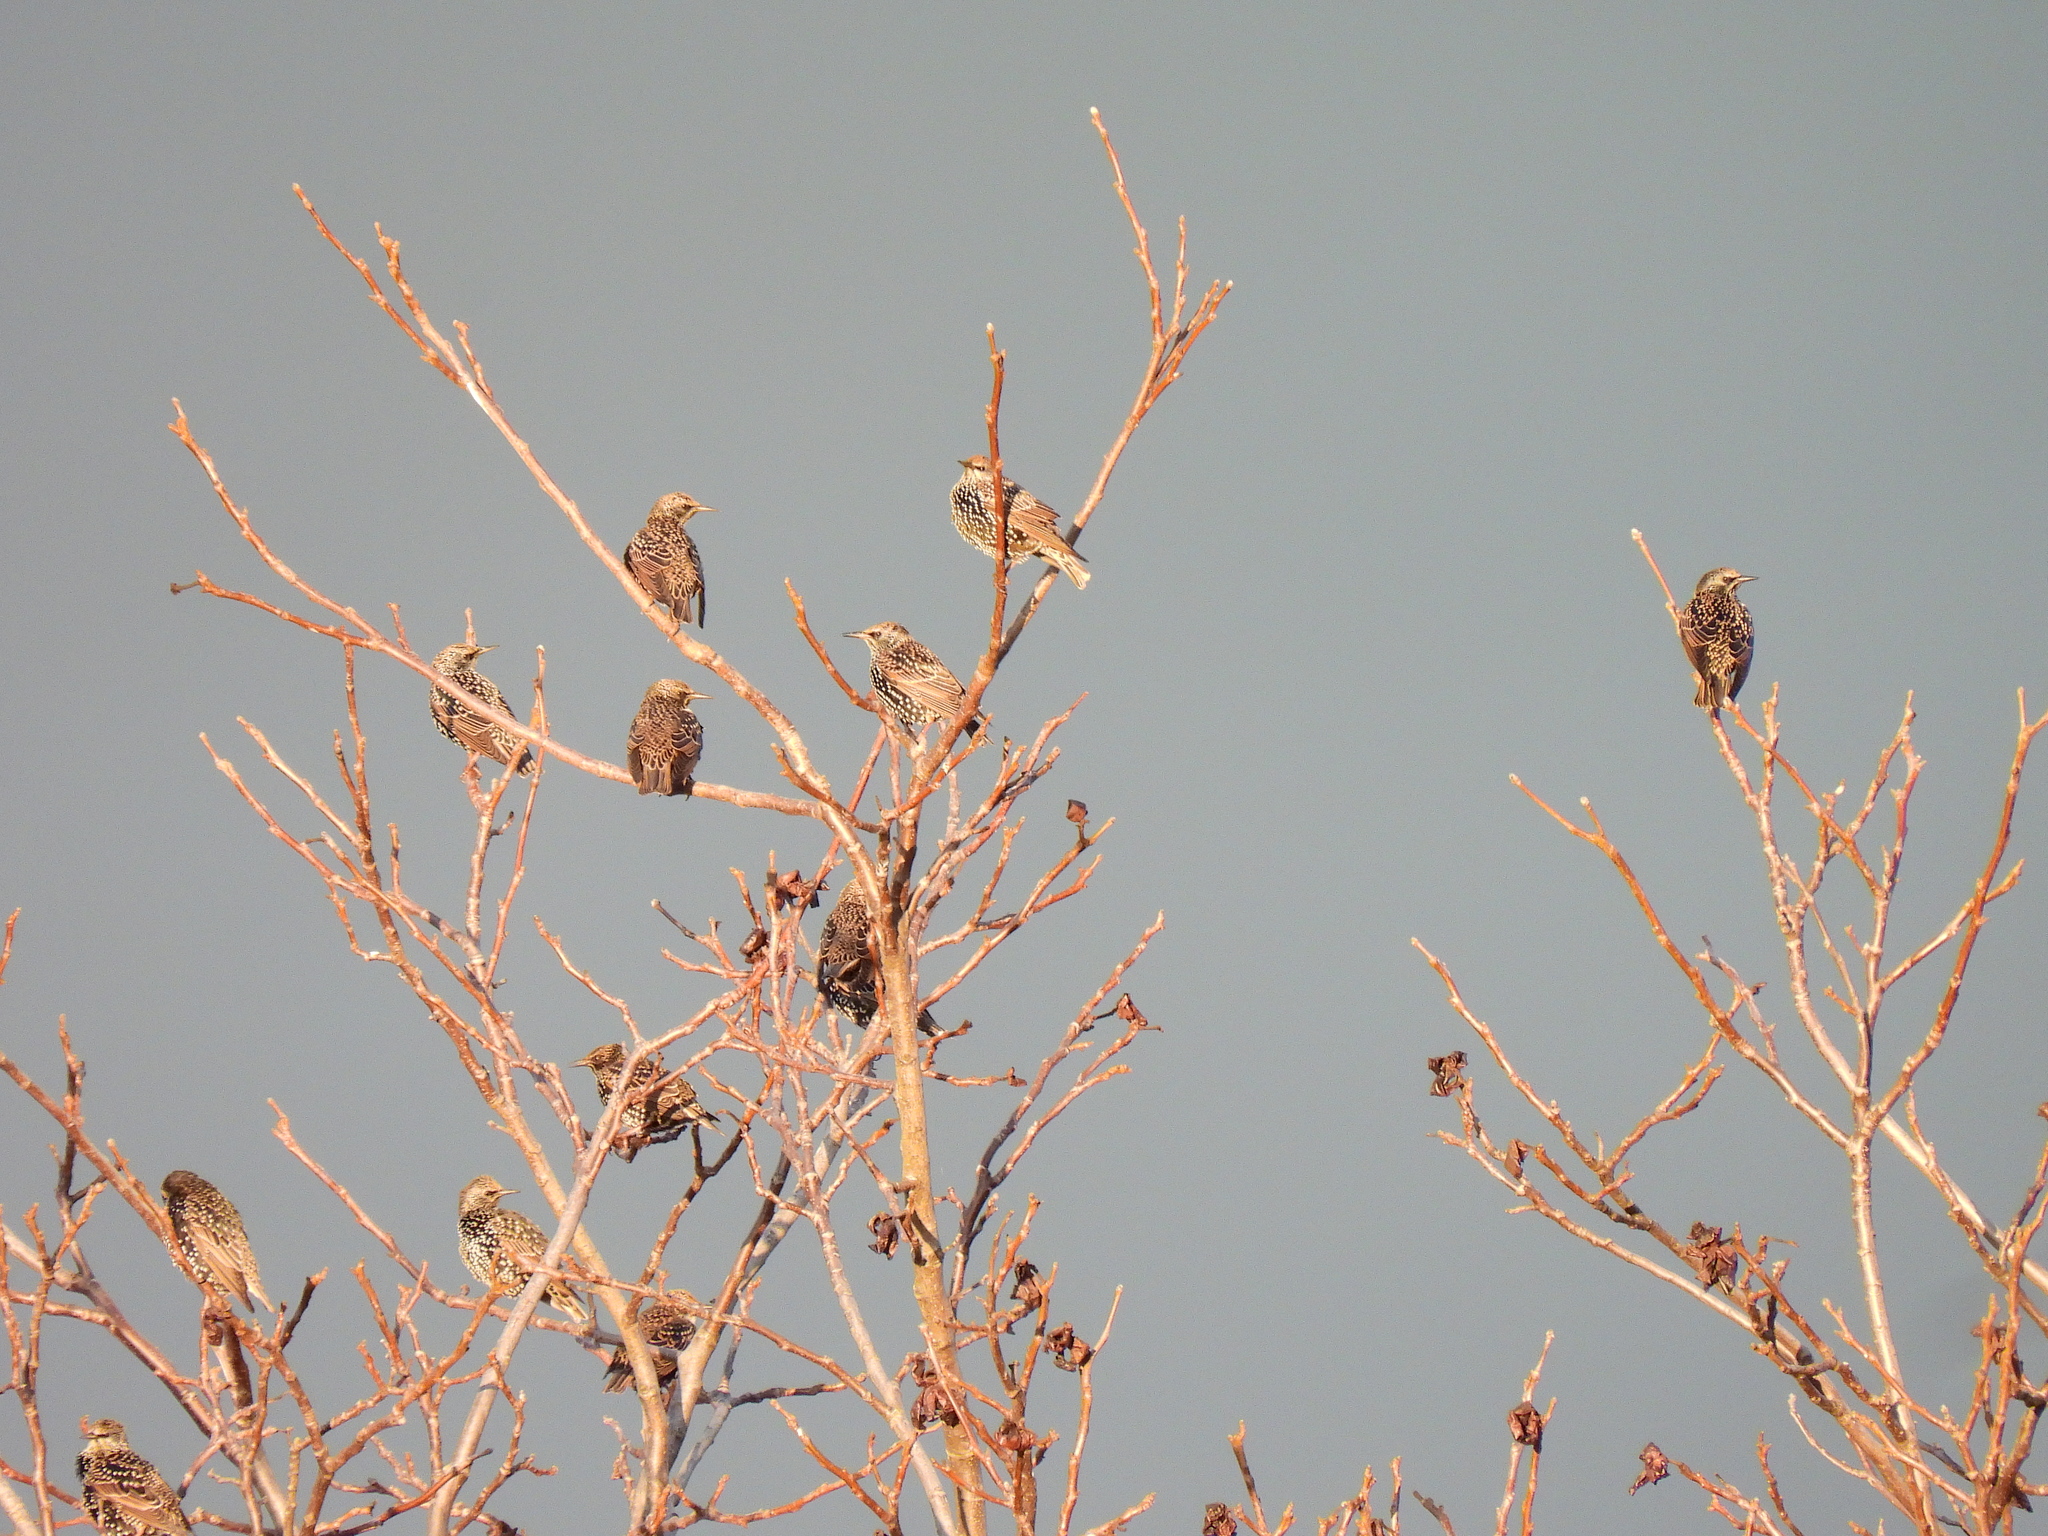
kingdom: Animalia
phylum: Chordata
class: Aves
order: Passeriformes
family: Sturnidae
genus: Sturnus
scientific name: Sturnus vulgaris
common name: Common starling
